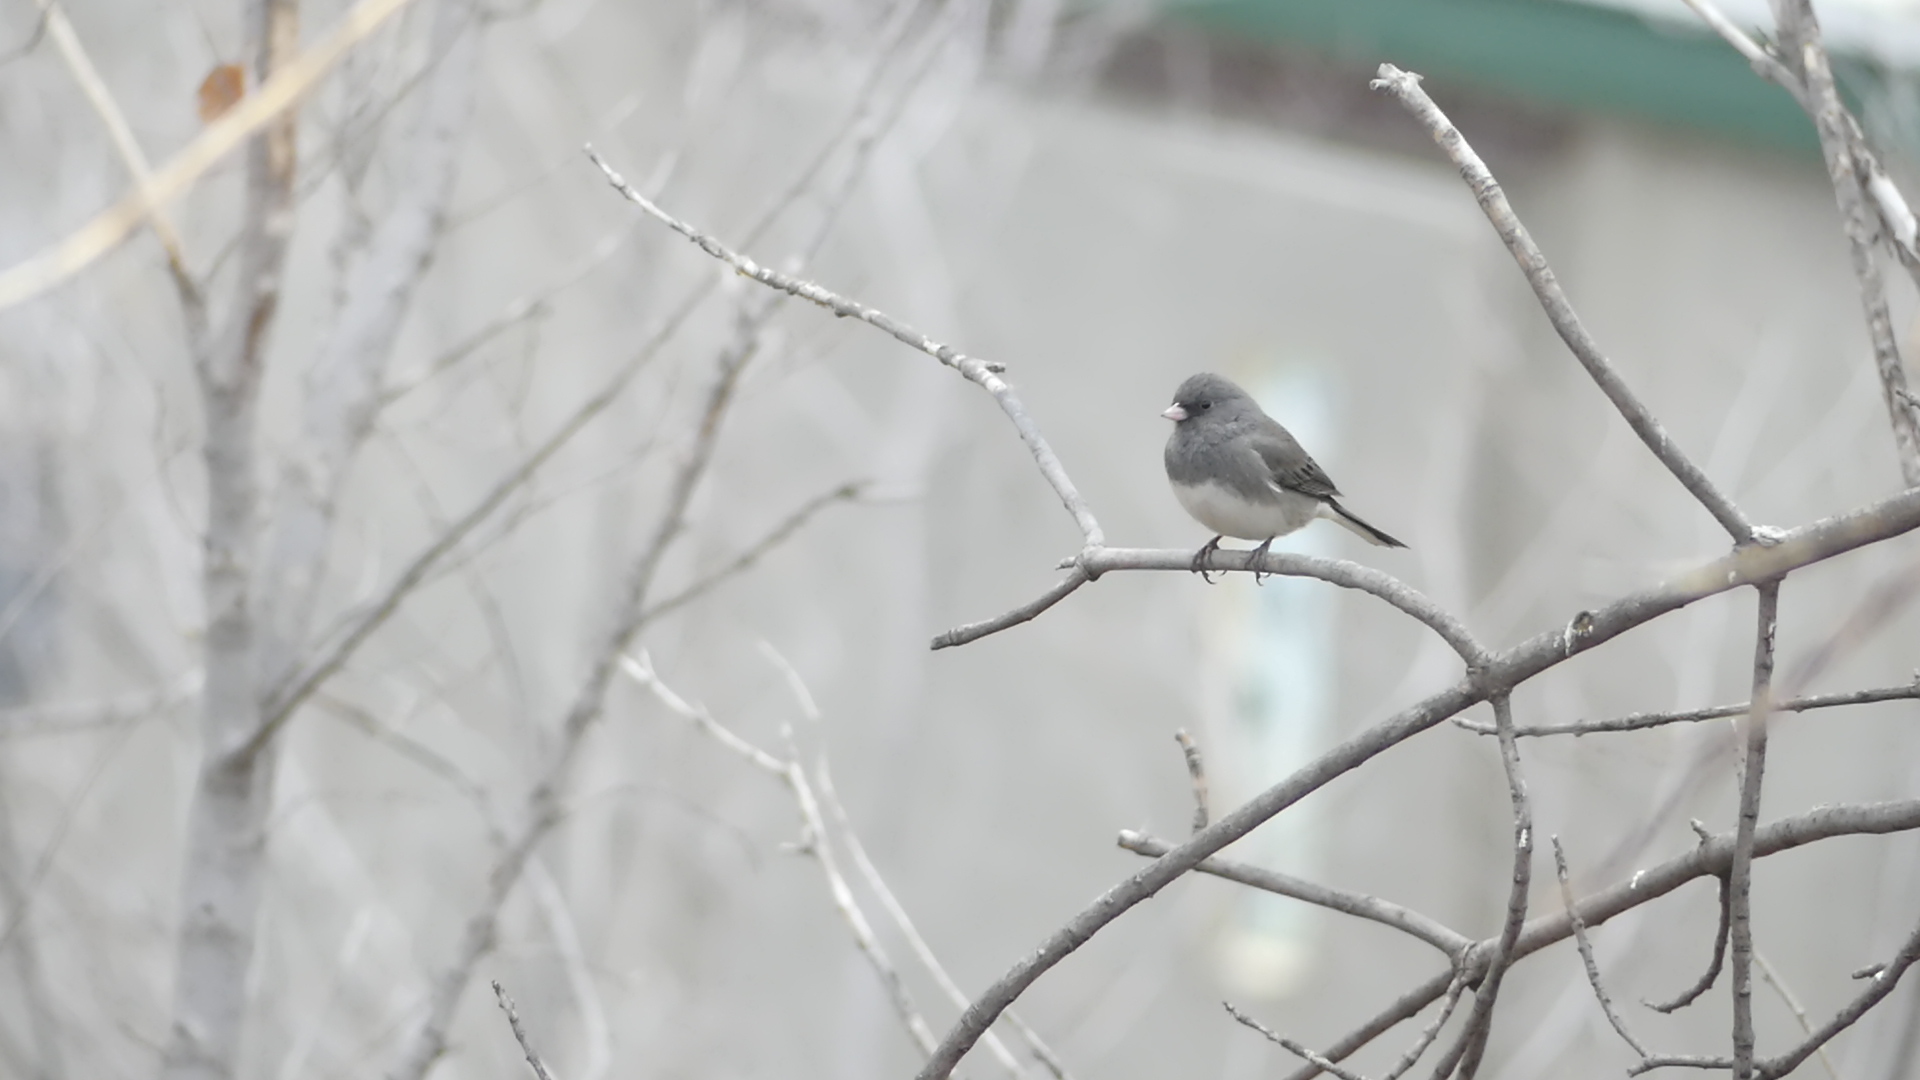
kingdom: Animalia
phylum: Chordata
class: Aves
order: Passeriformes
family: Passerellidae
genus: Junco
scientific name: Junco hyemalis
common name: Dark-eyed junco
